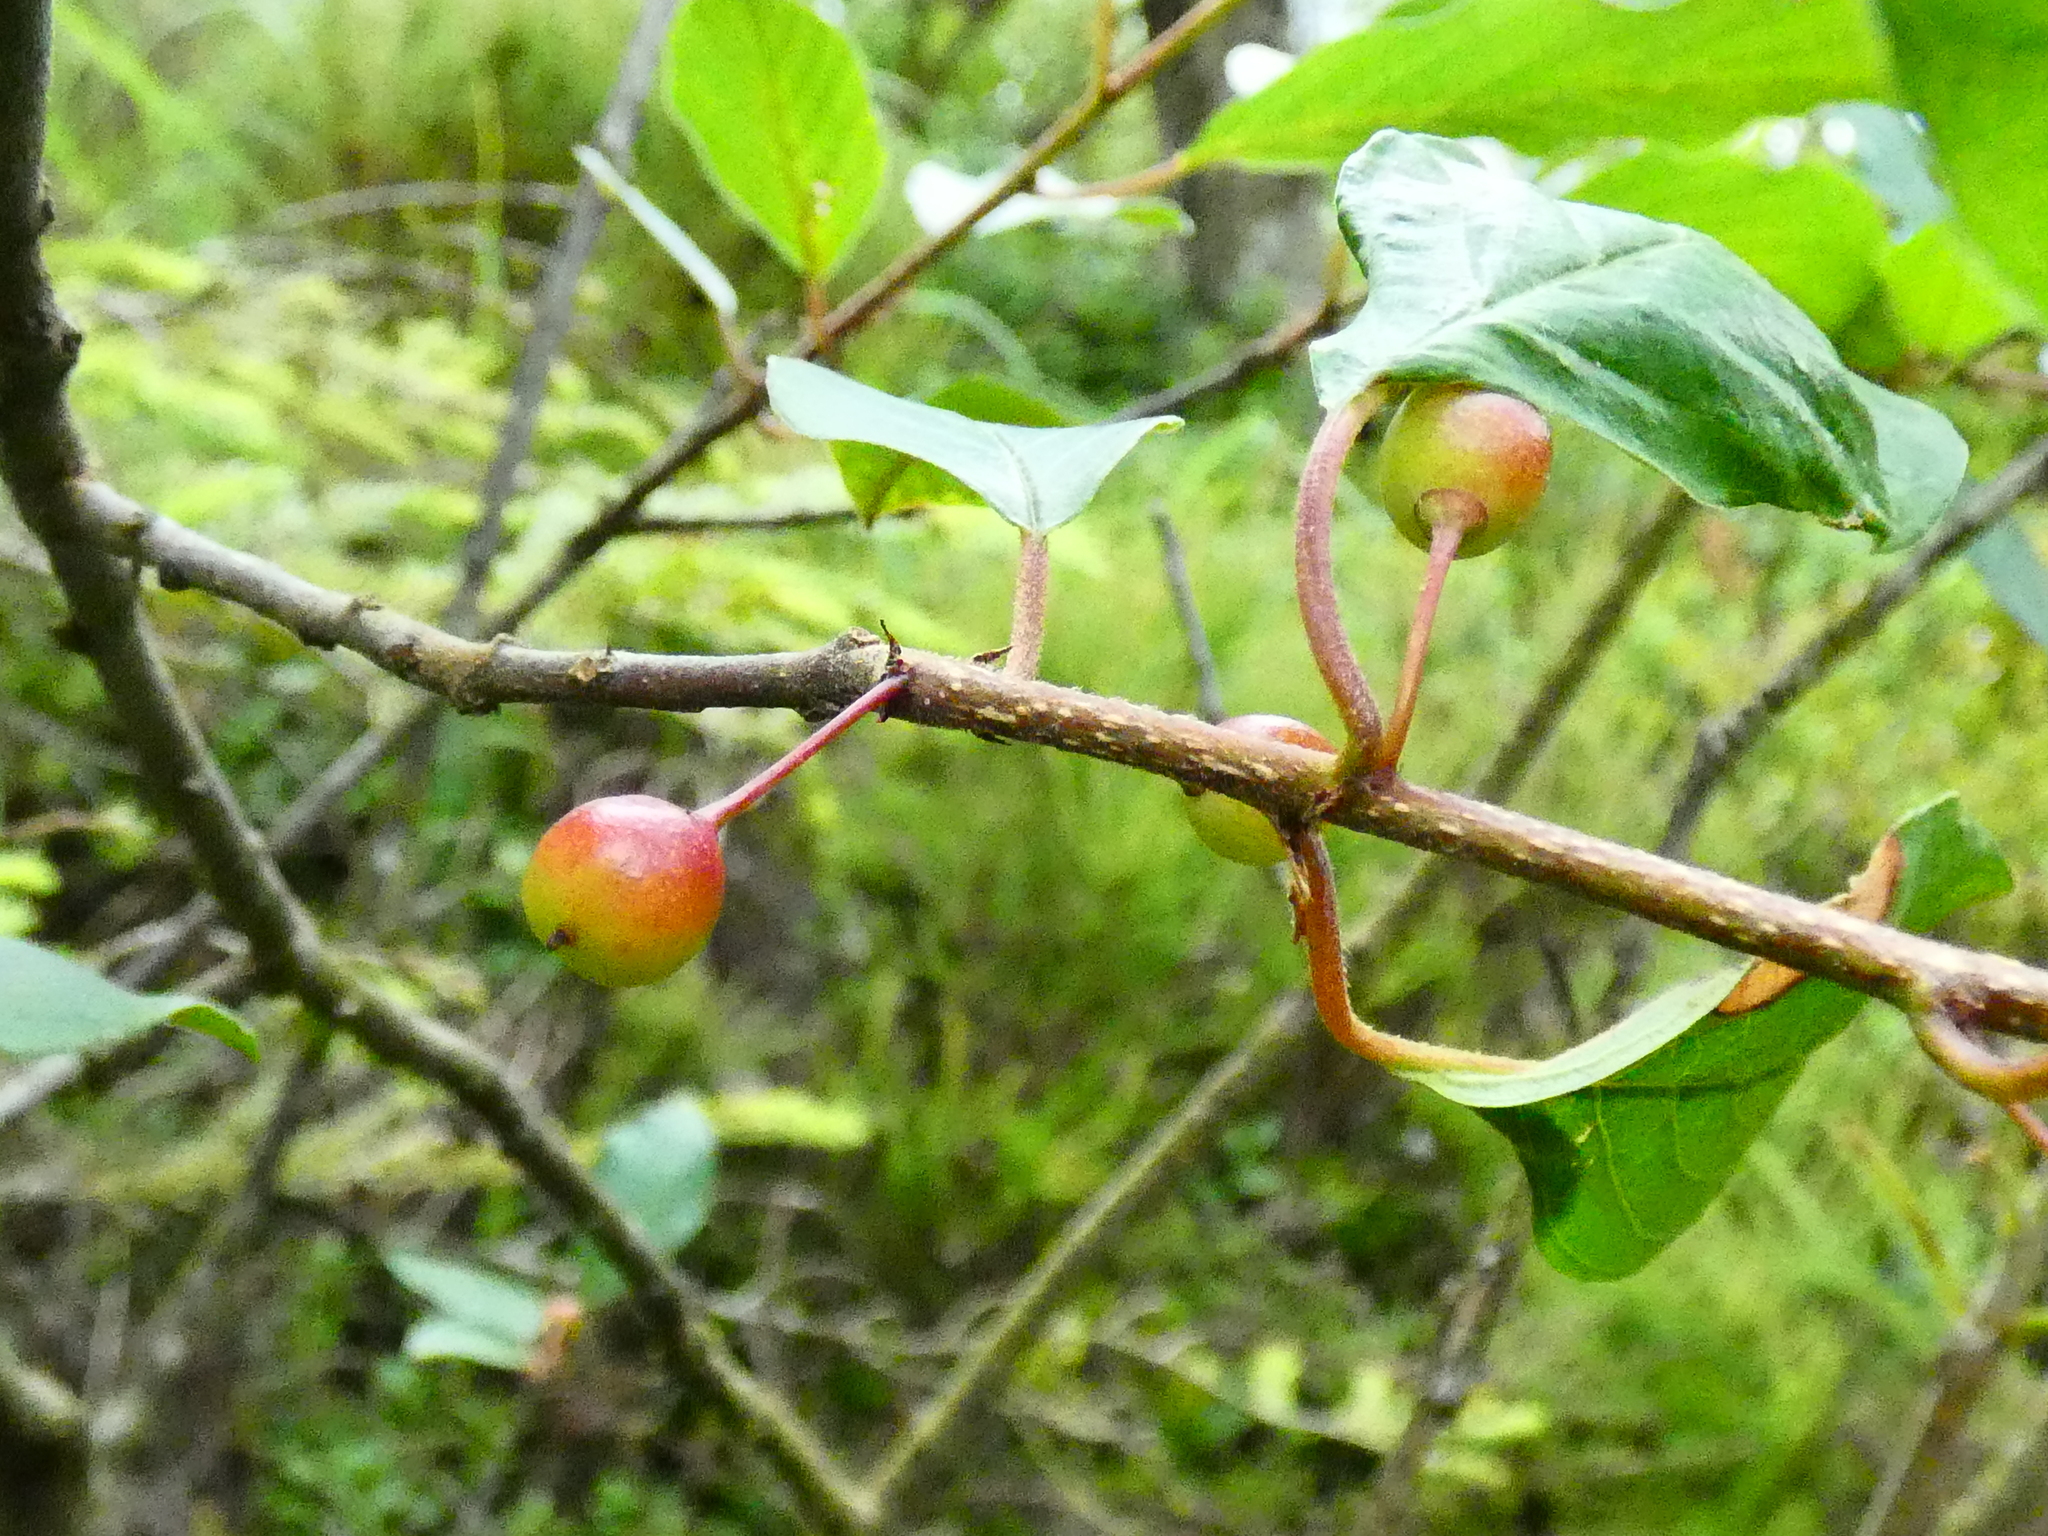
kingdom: Plantae
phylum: Tracheophyta
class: Magnoliopsida
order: Rosales
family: Rhamnaceae
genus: Frangula
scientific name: Frangula alnus
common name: Alder buckthorn
